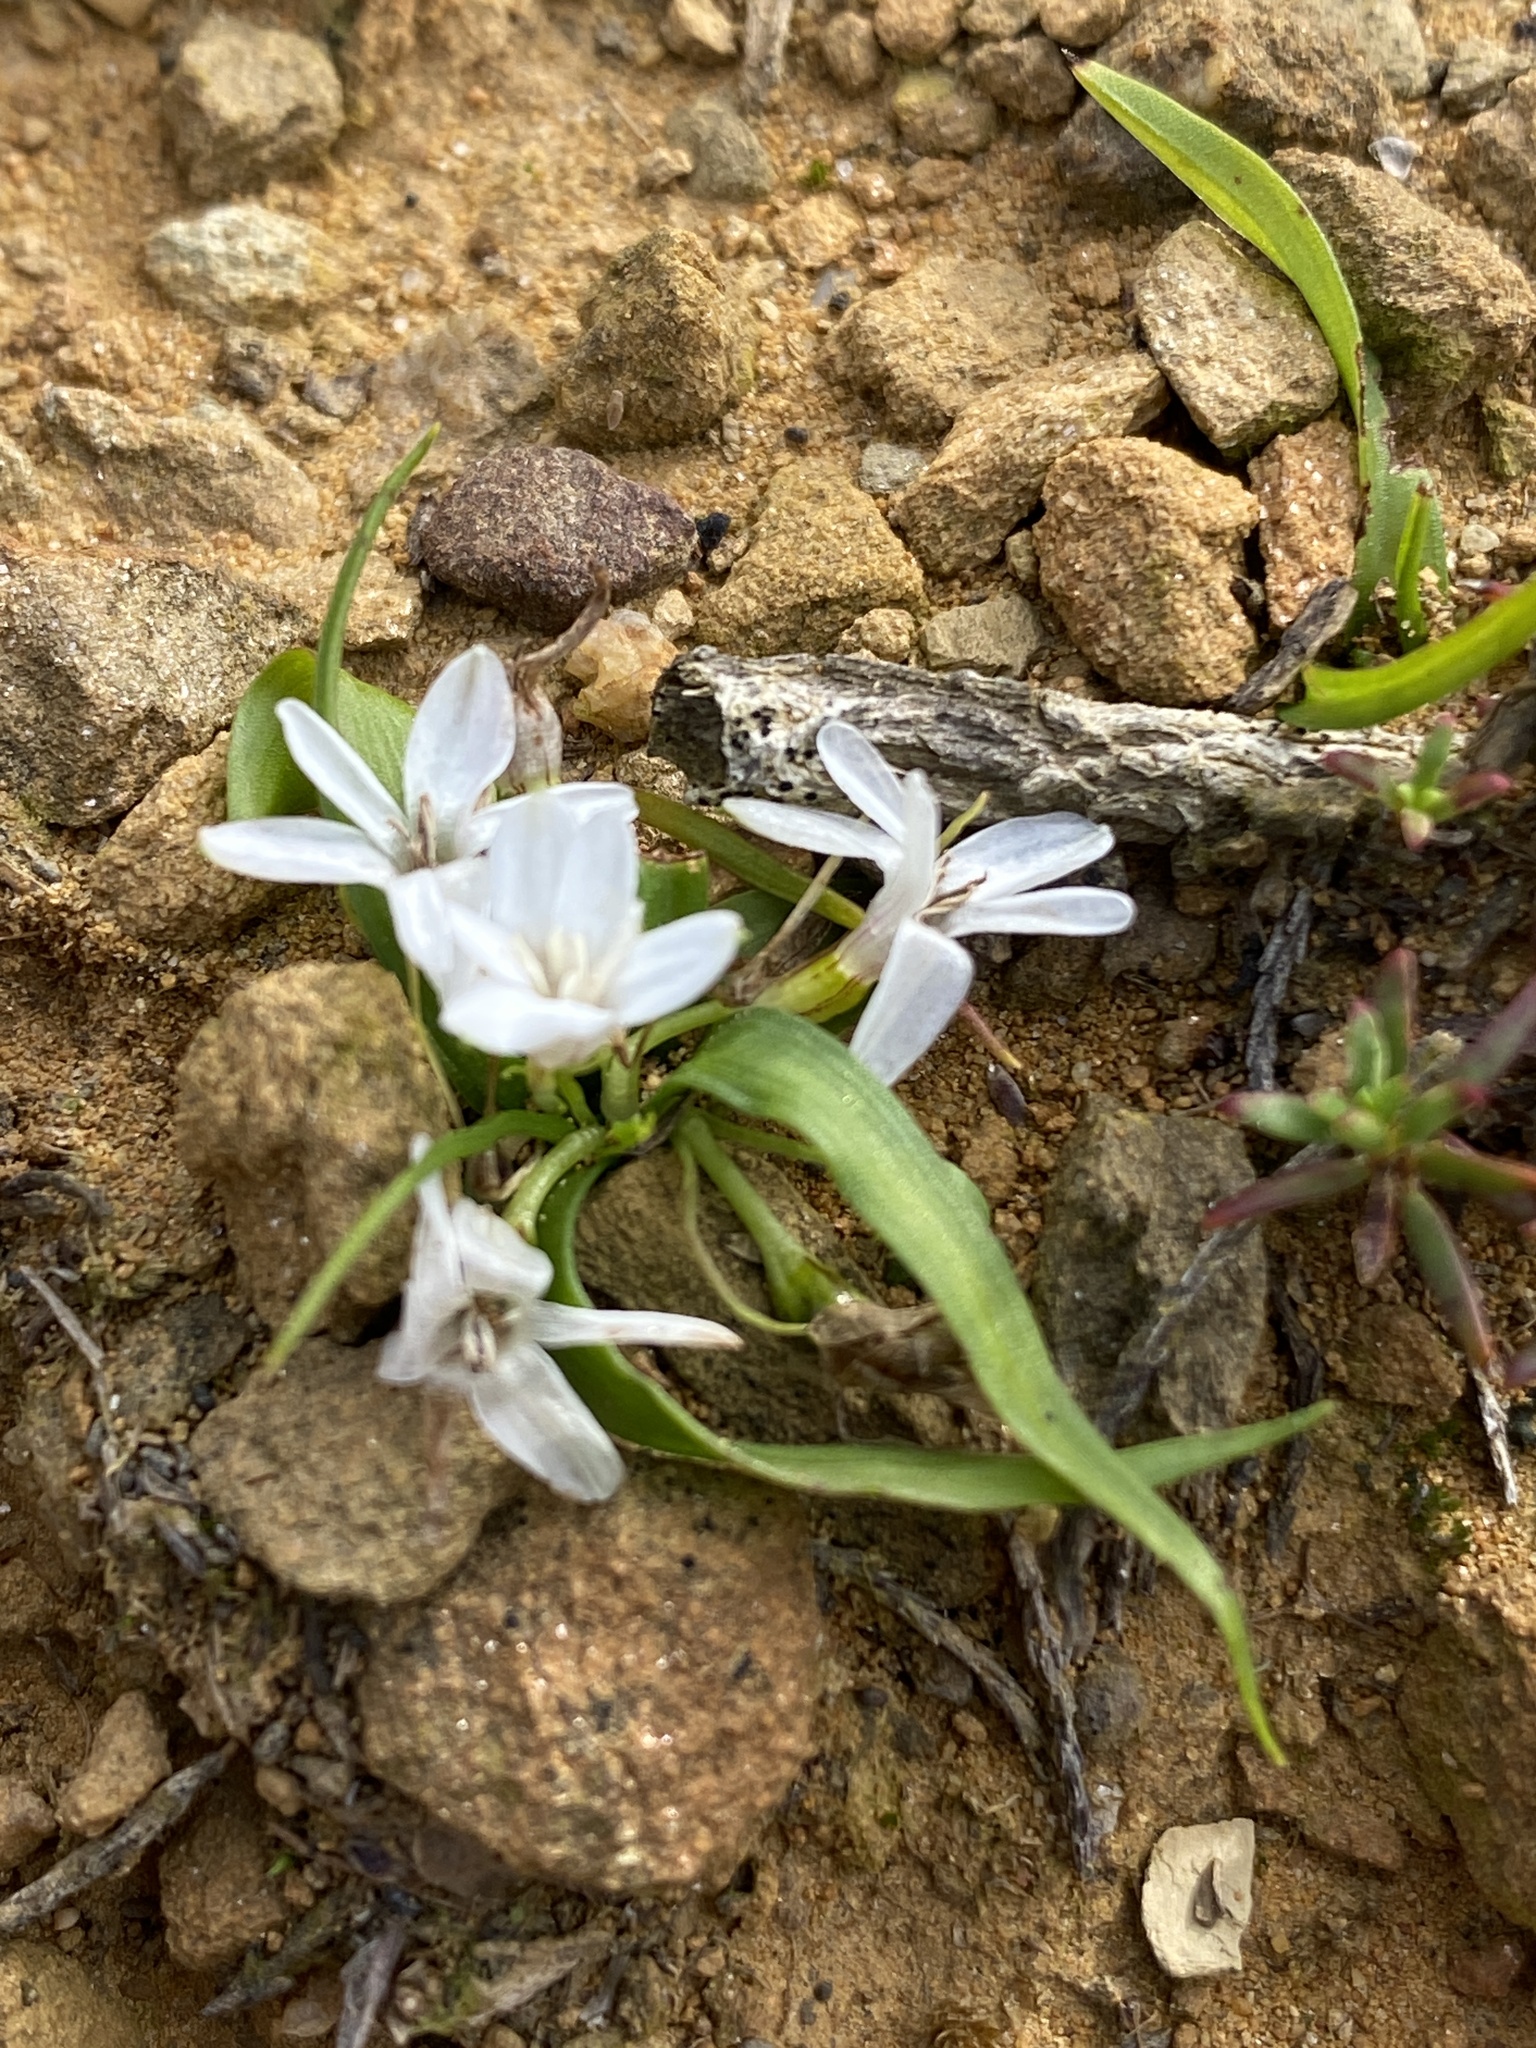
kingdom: Plantae
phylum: Tracheophyta
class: Liliopsida
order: Asparagales
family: Hypoxidaceae
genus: Pauridia
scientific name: Pauridia minuta
